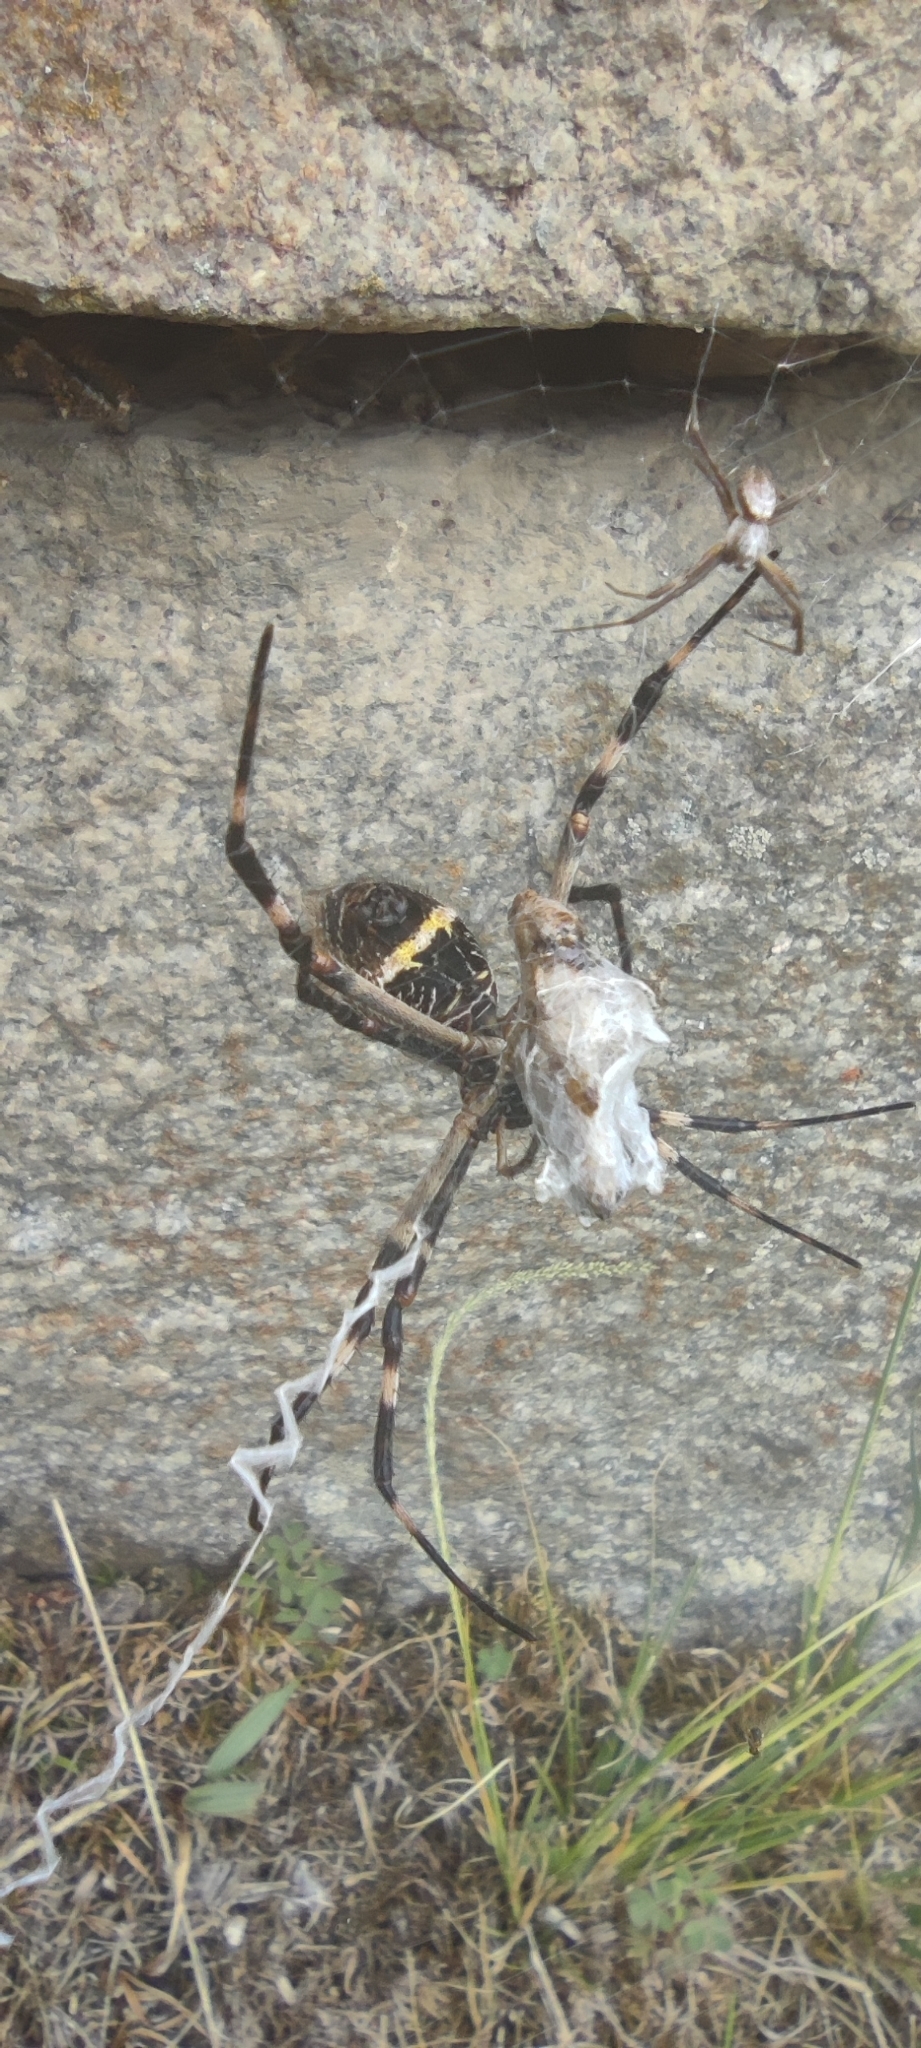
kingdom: Animalia
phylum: Arthropoda
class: Arachnida
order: Araneae
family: Araneidae
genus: Argiope
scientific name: Argiope argentata
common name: Orb weavers
